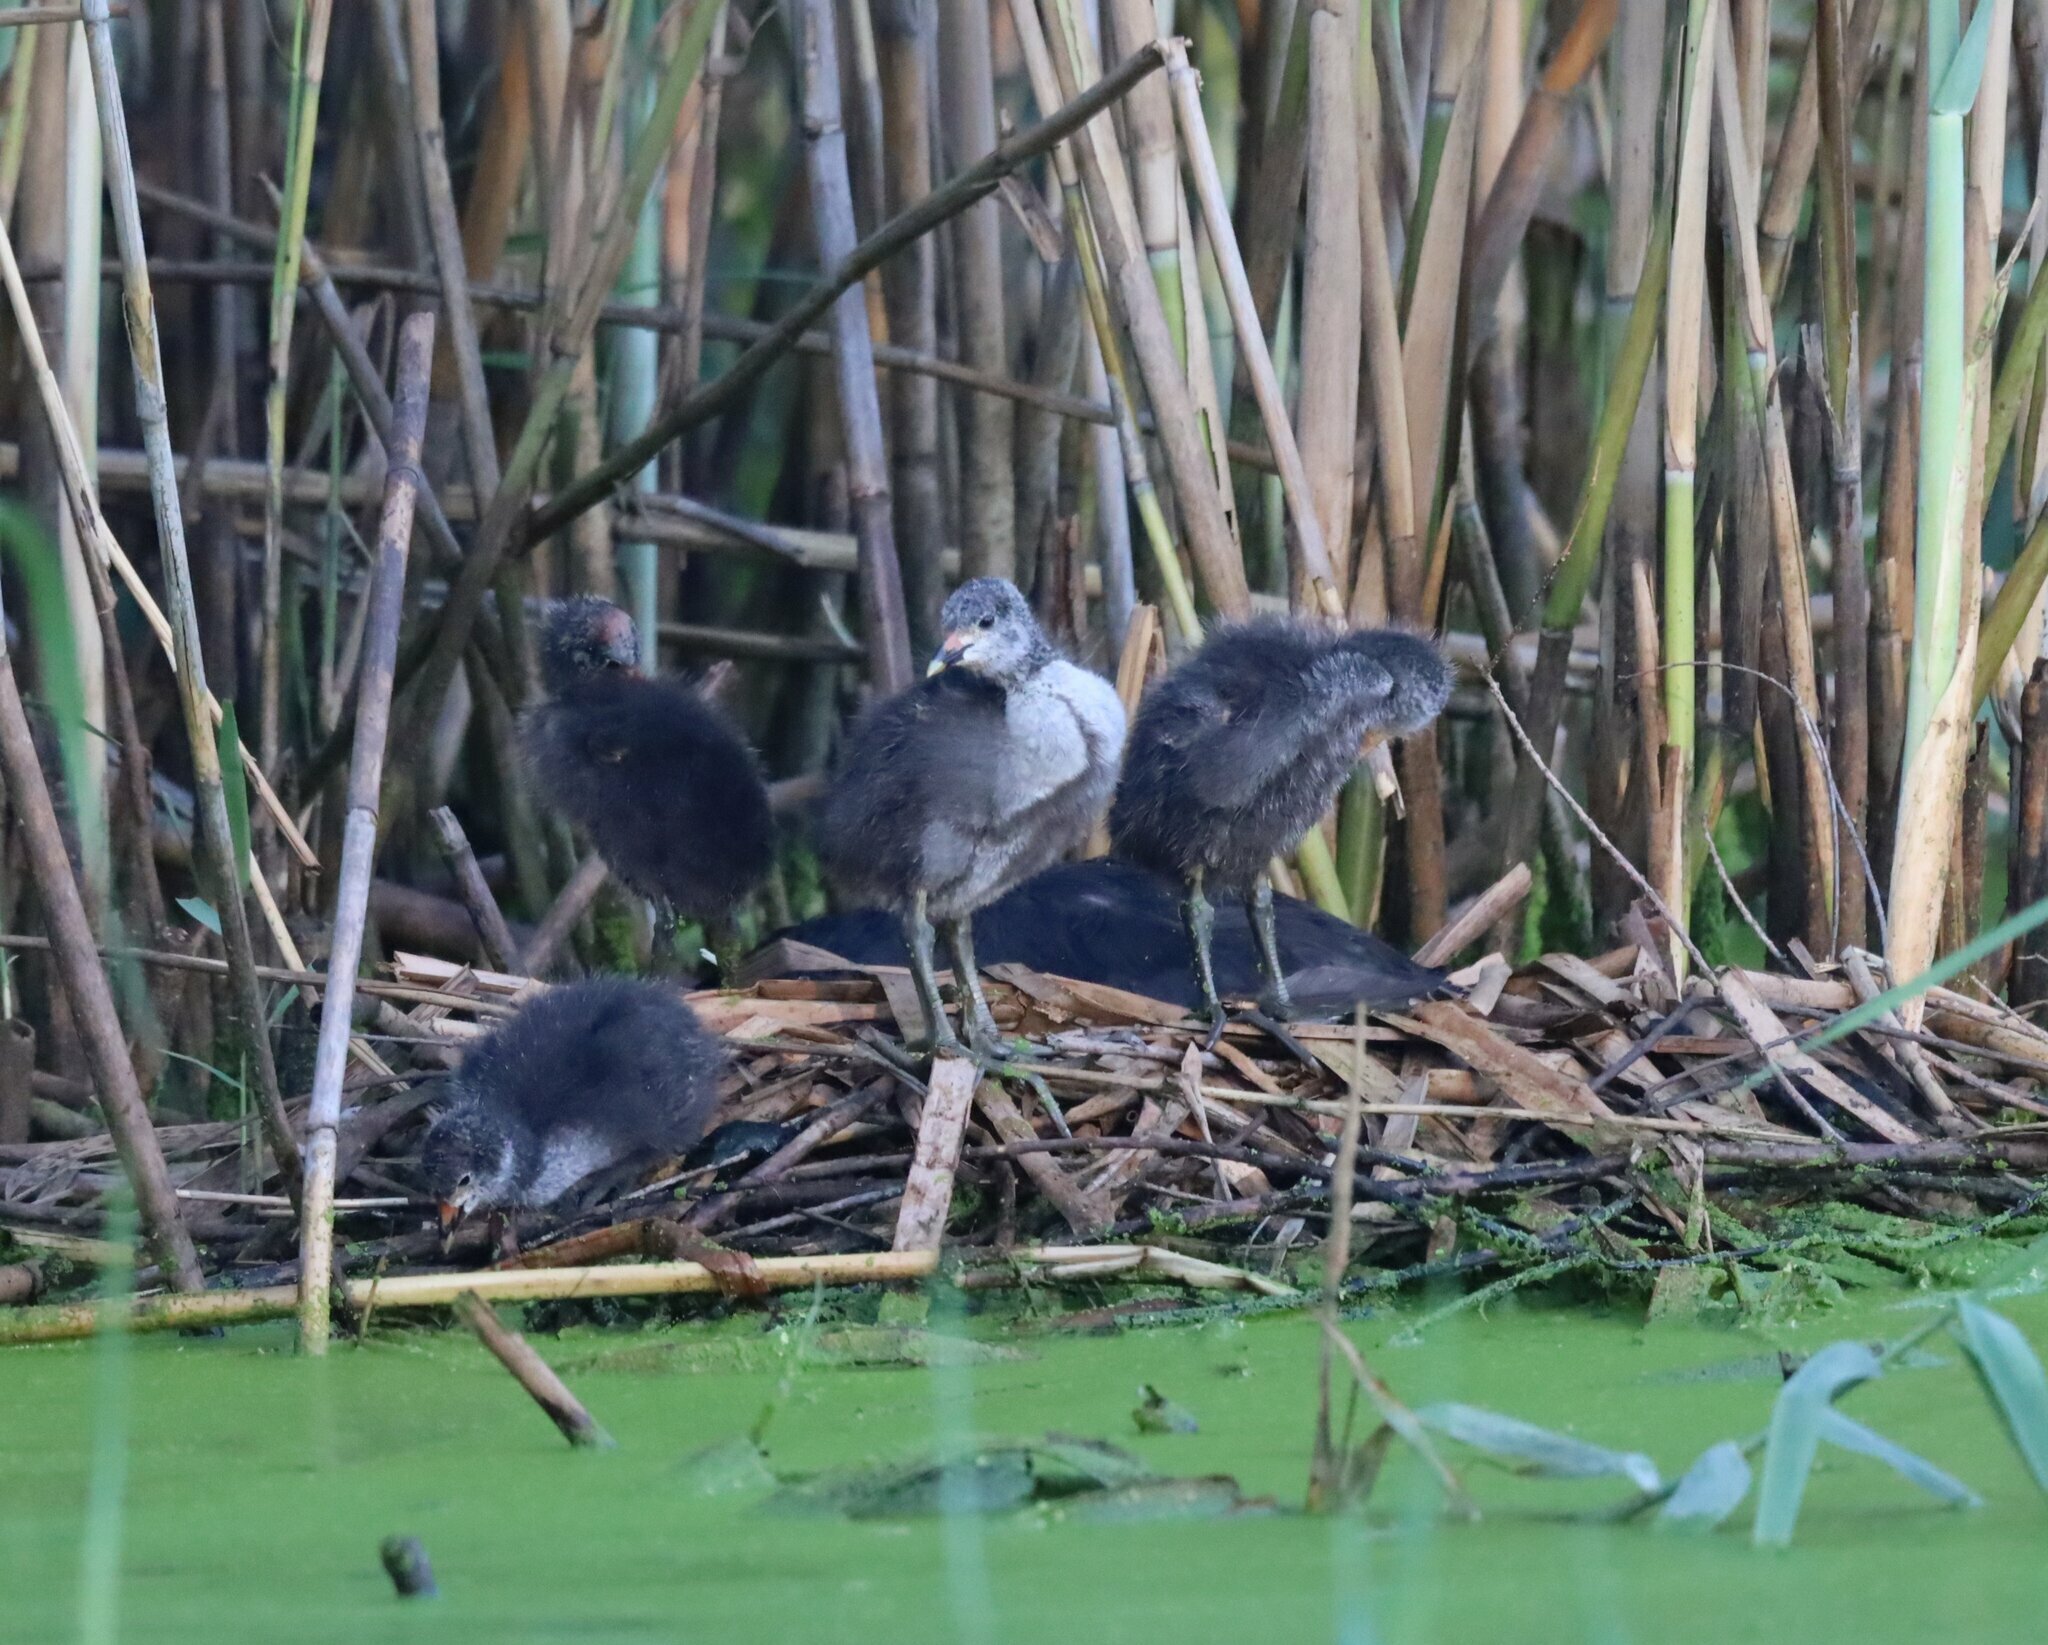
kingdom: Animalia
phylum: Chordata
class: Aves
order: Gruiformes
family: Rallidae
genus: Fulica
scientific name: Fulica cristata
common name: Red-knobbed coot
